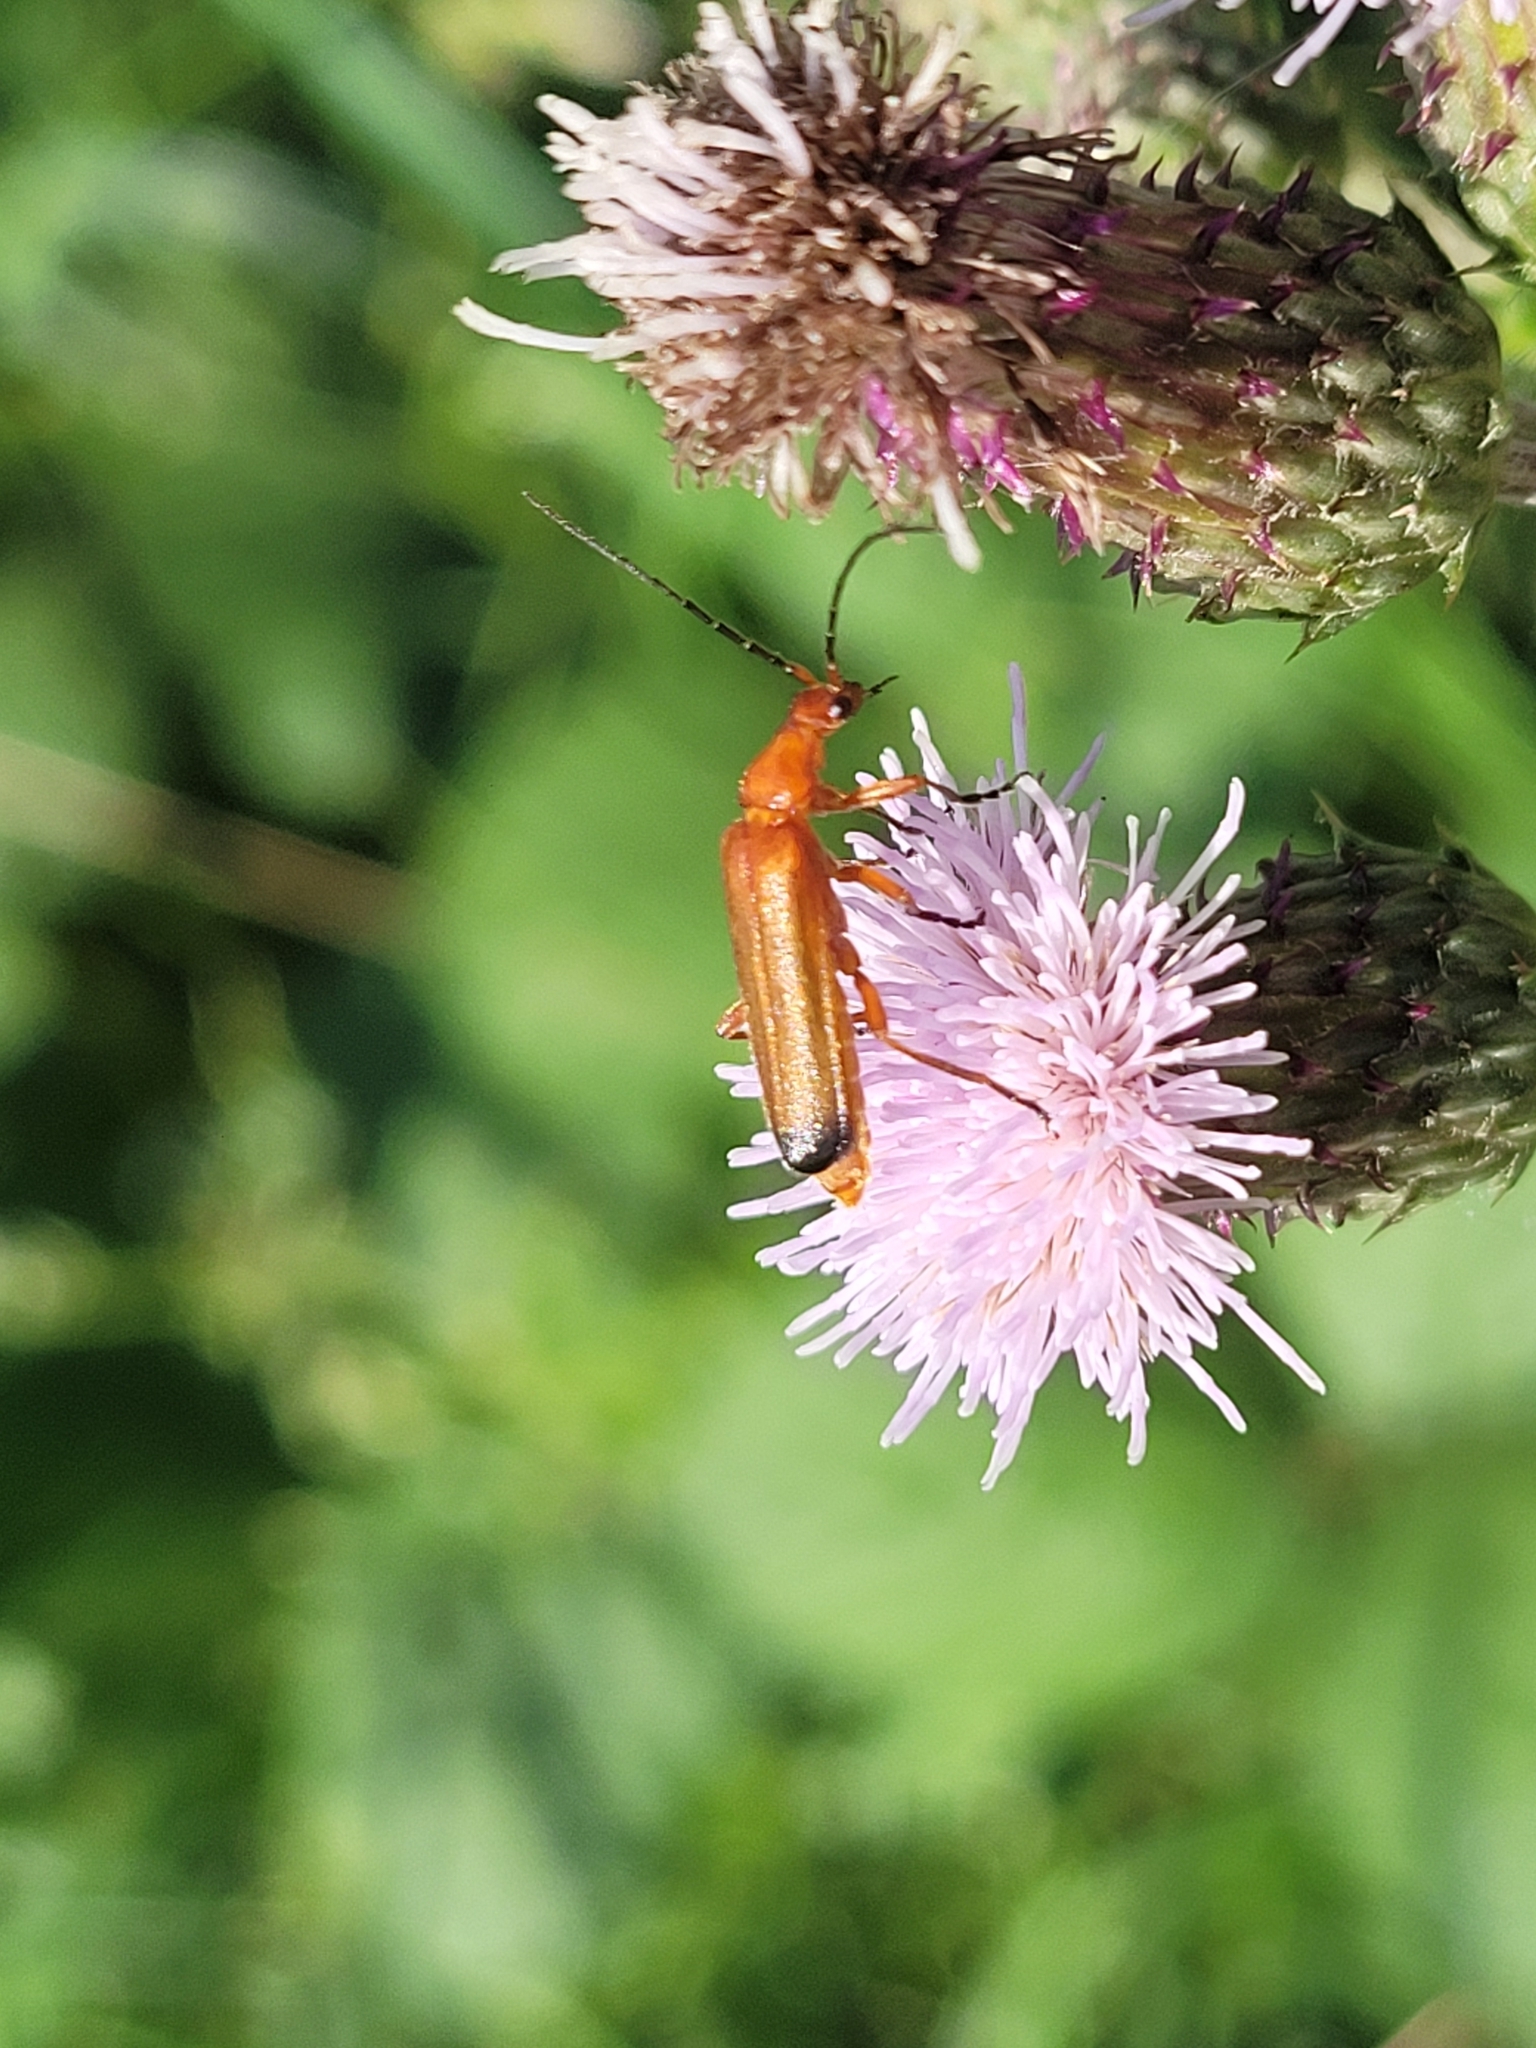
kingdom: Animalia
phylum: Arthropoda
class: Insecta
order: Coleoptera
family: Cantharidae
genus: Rhagonycha
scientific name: Rhagonycha fulva
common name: Common red soldier beetle
